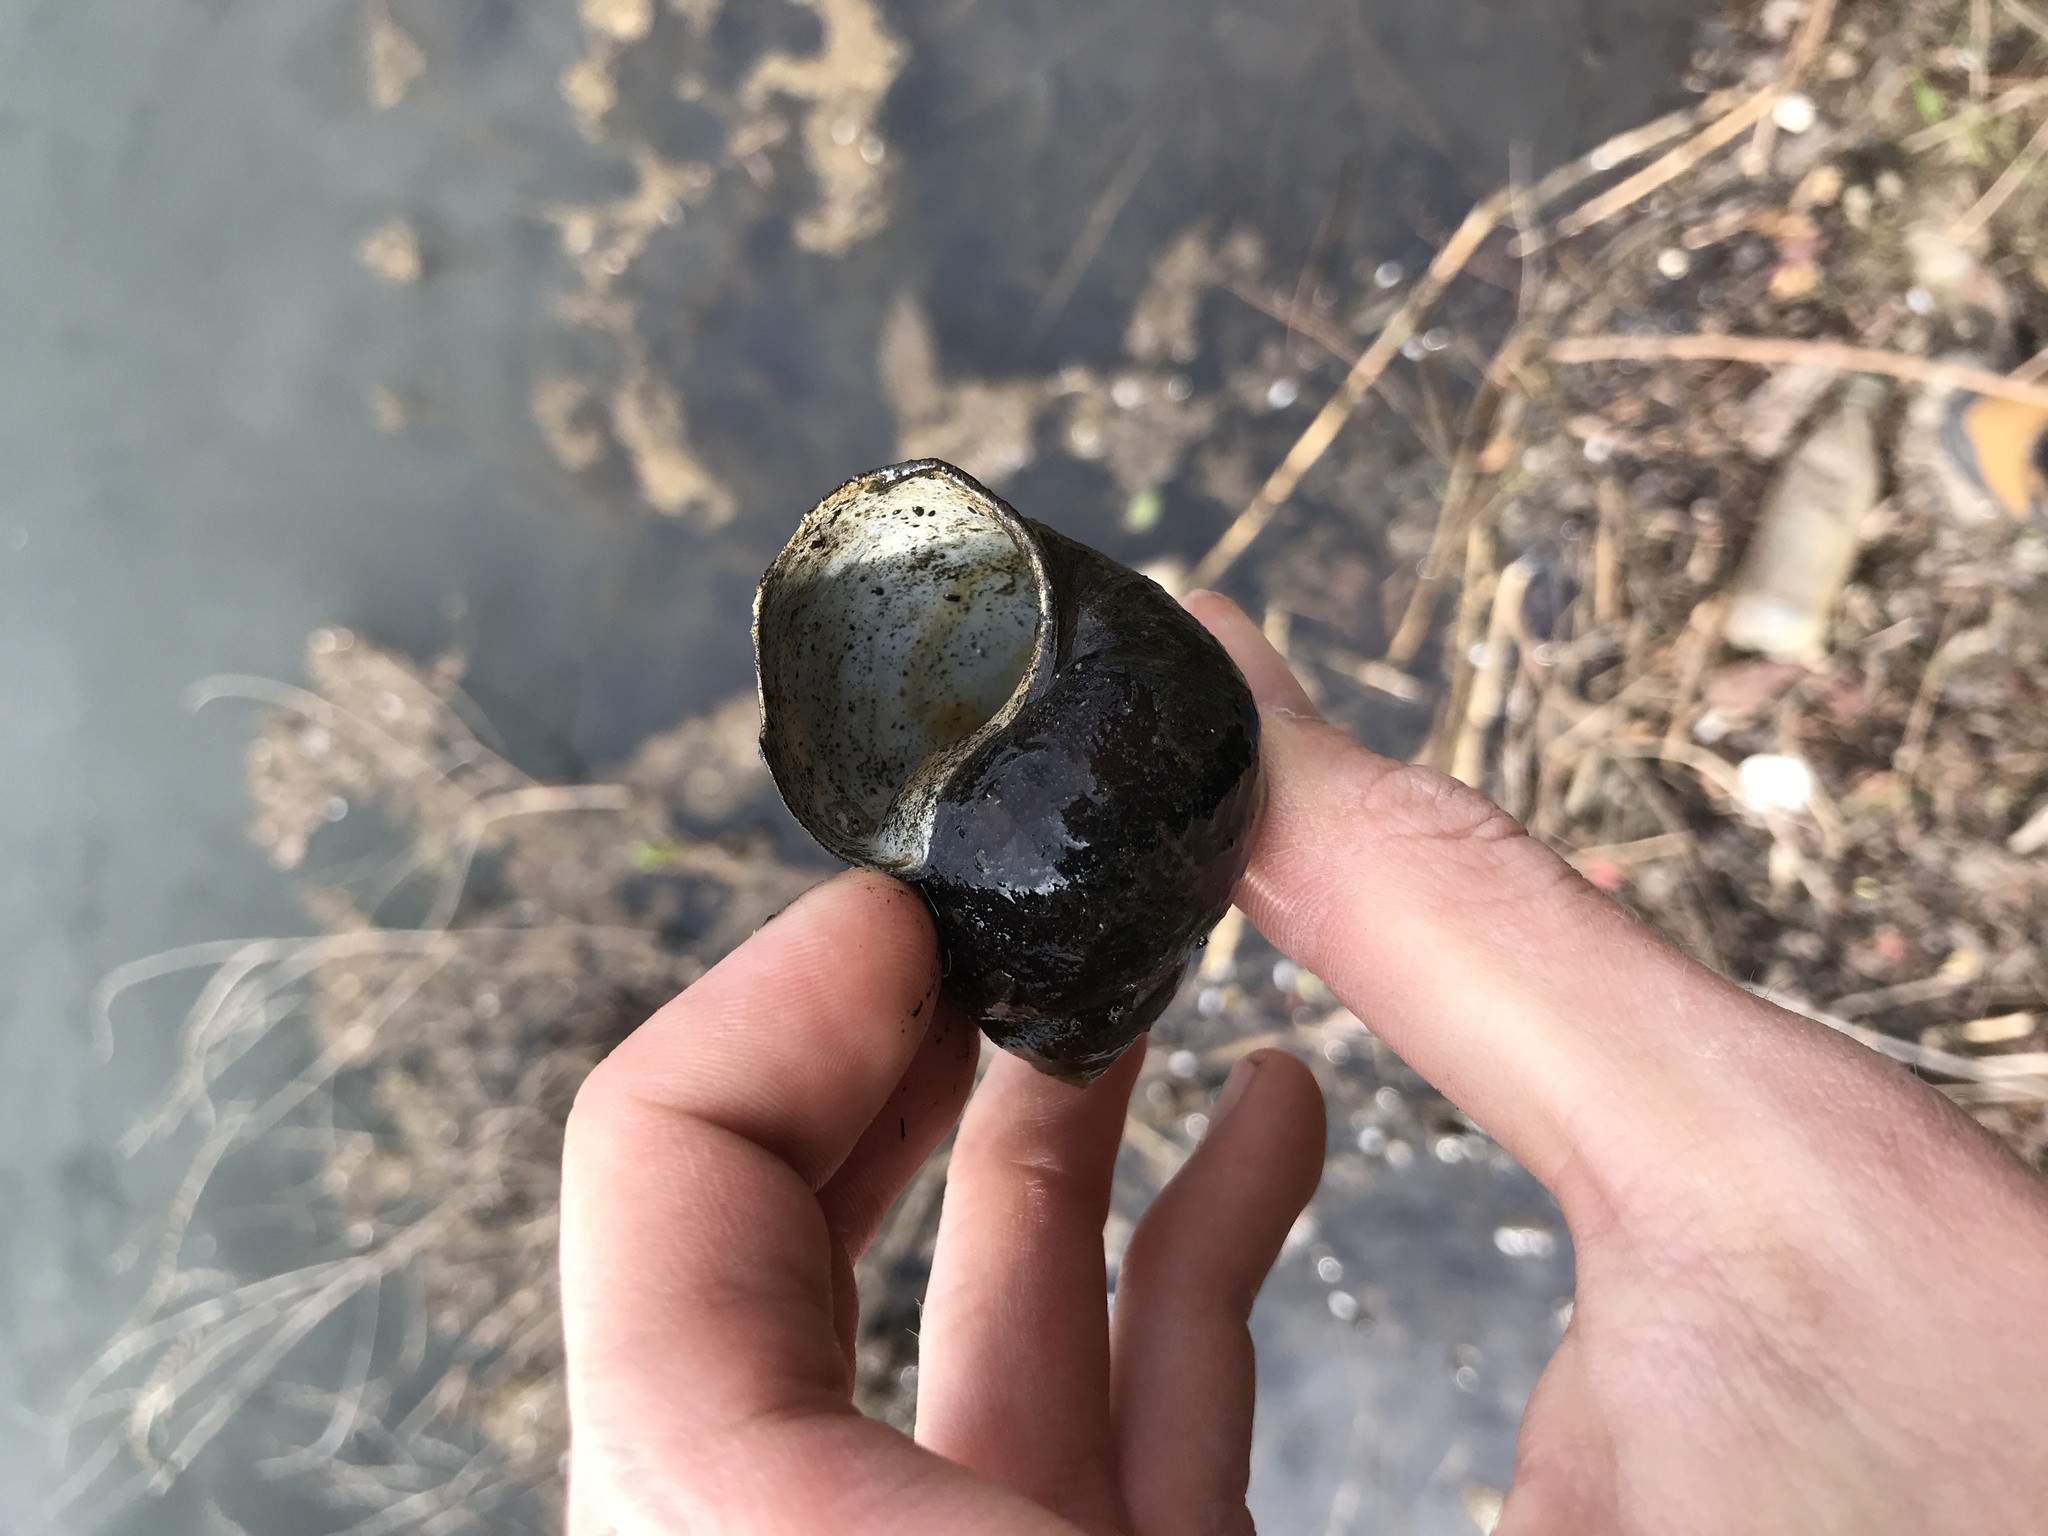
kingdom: Animalia
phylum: Mollusca
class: Gastropoda
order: Architaenioglossa
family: Viviparidae
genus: Cipangopaludina
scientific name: Cipangopaludina chinensis
